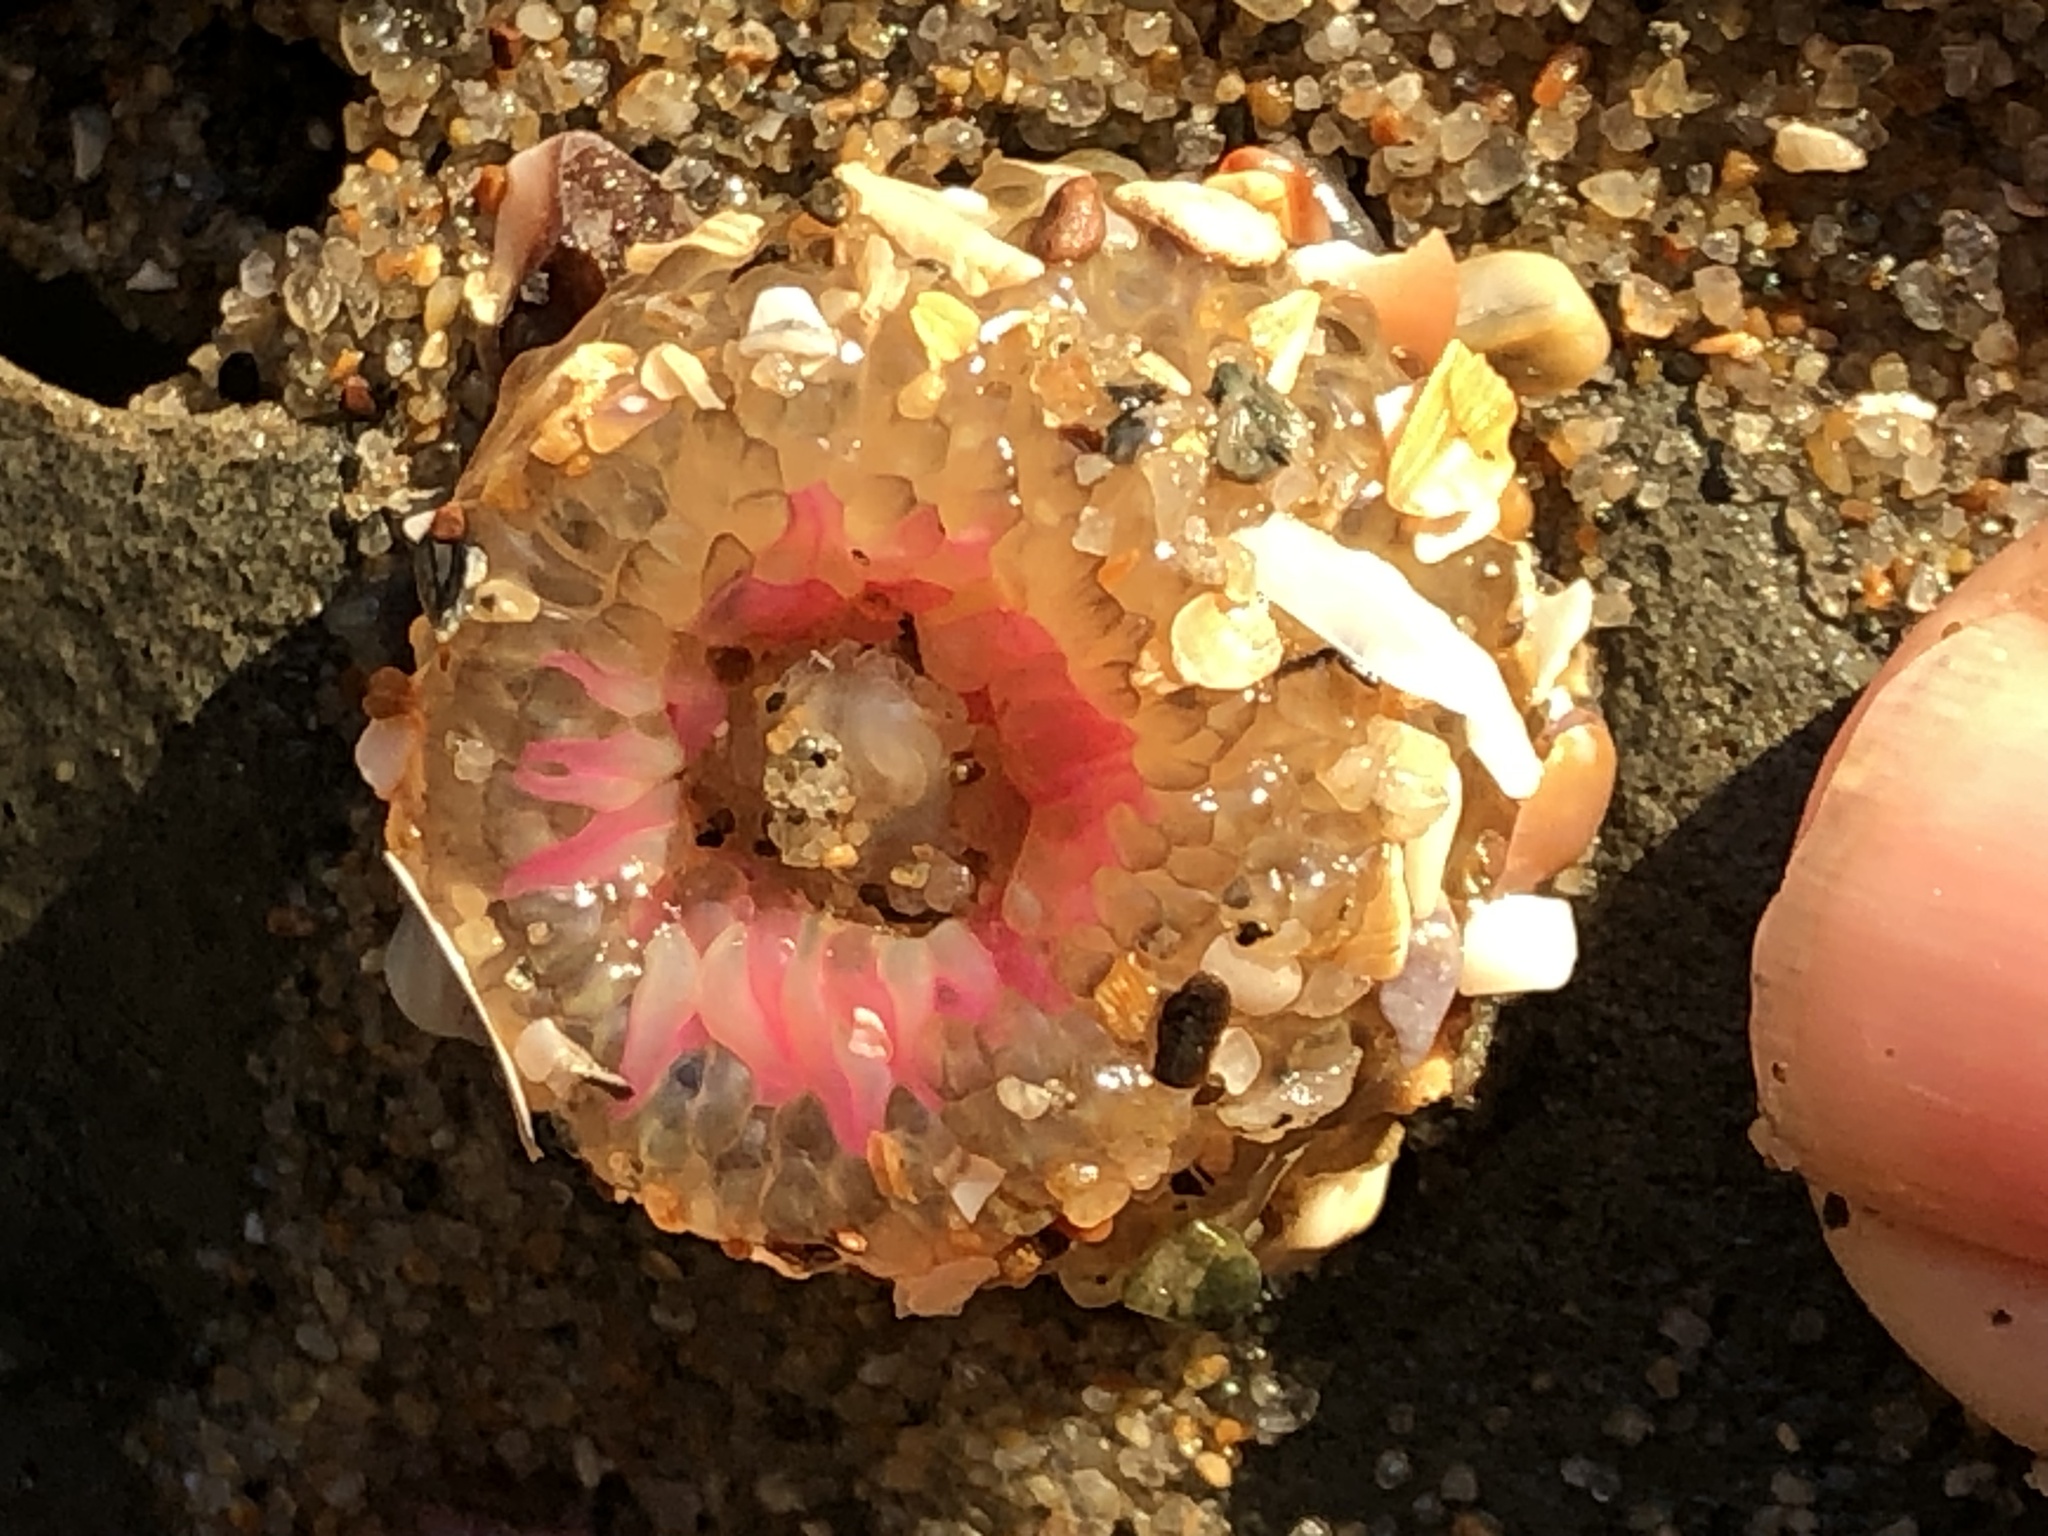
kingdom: Animalia
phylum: Cnidaria
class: Anthozoa
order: Actiniaria
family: Actiniidae
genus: Anthopleura
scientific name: Anthopleura elegantissima
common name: Clonal anemone
